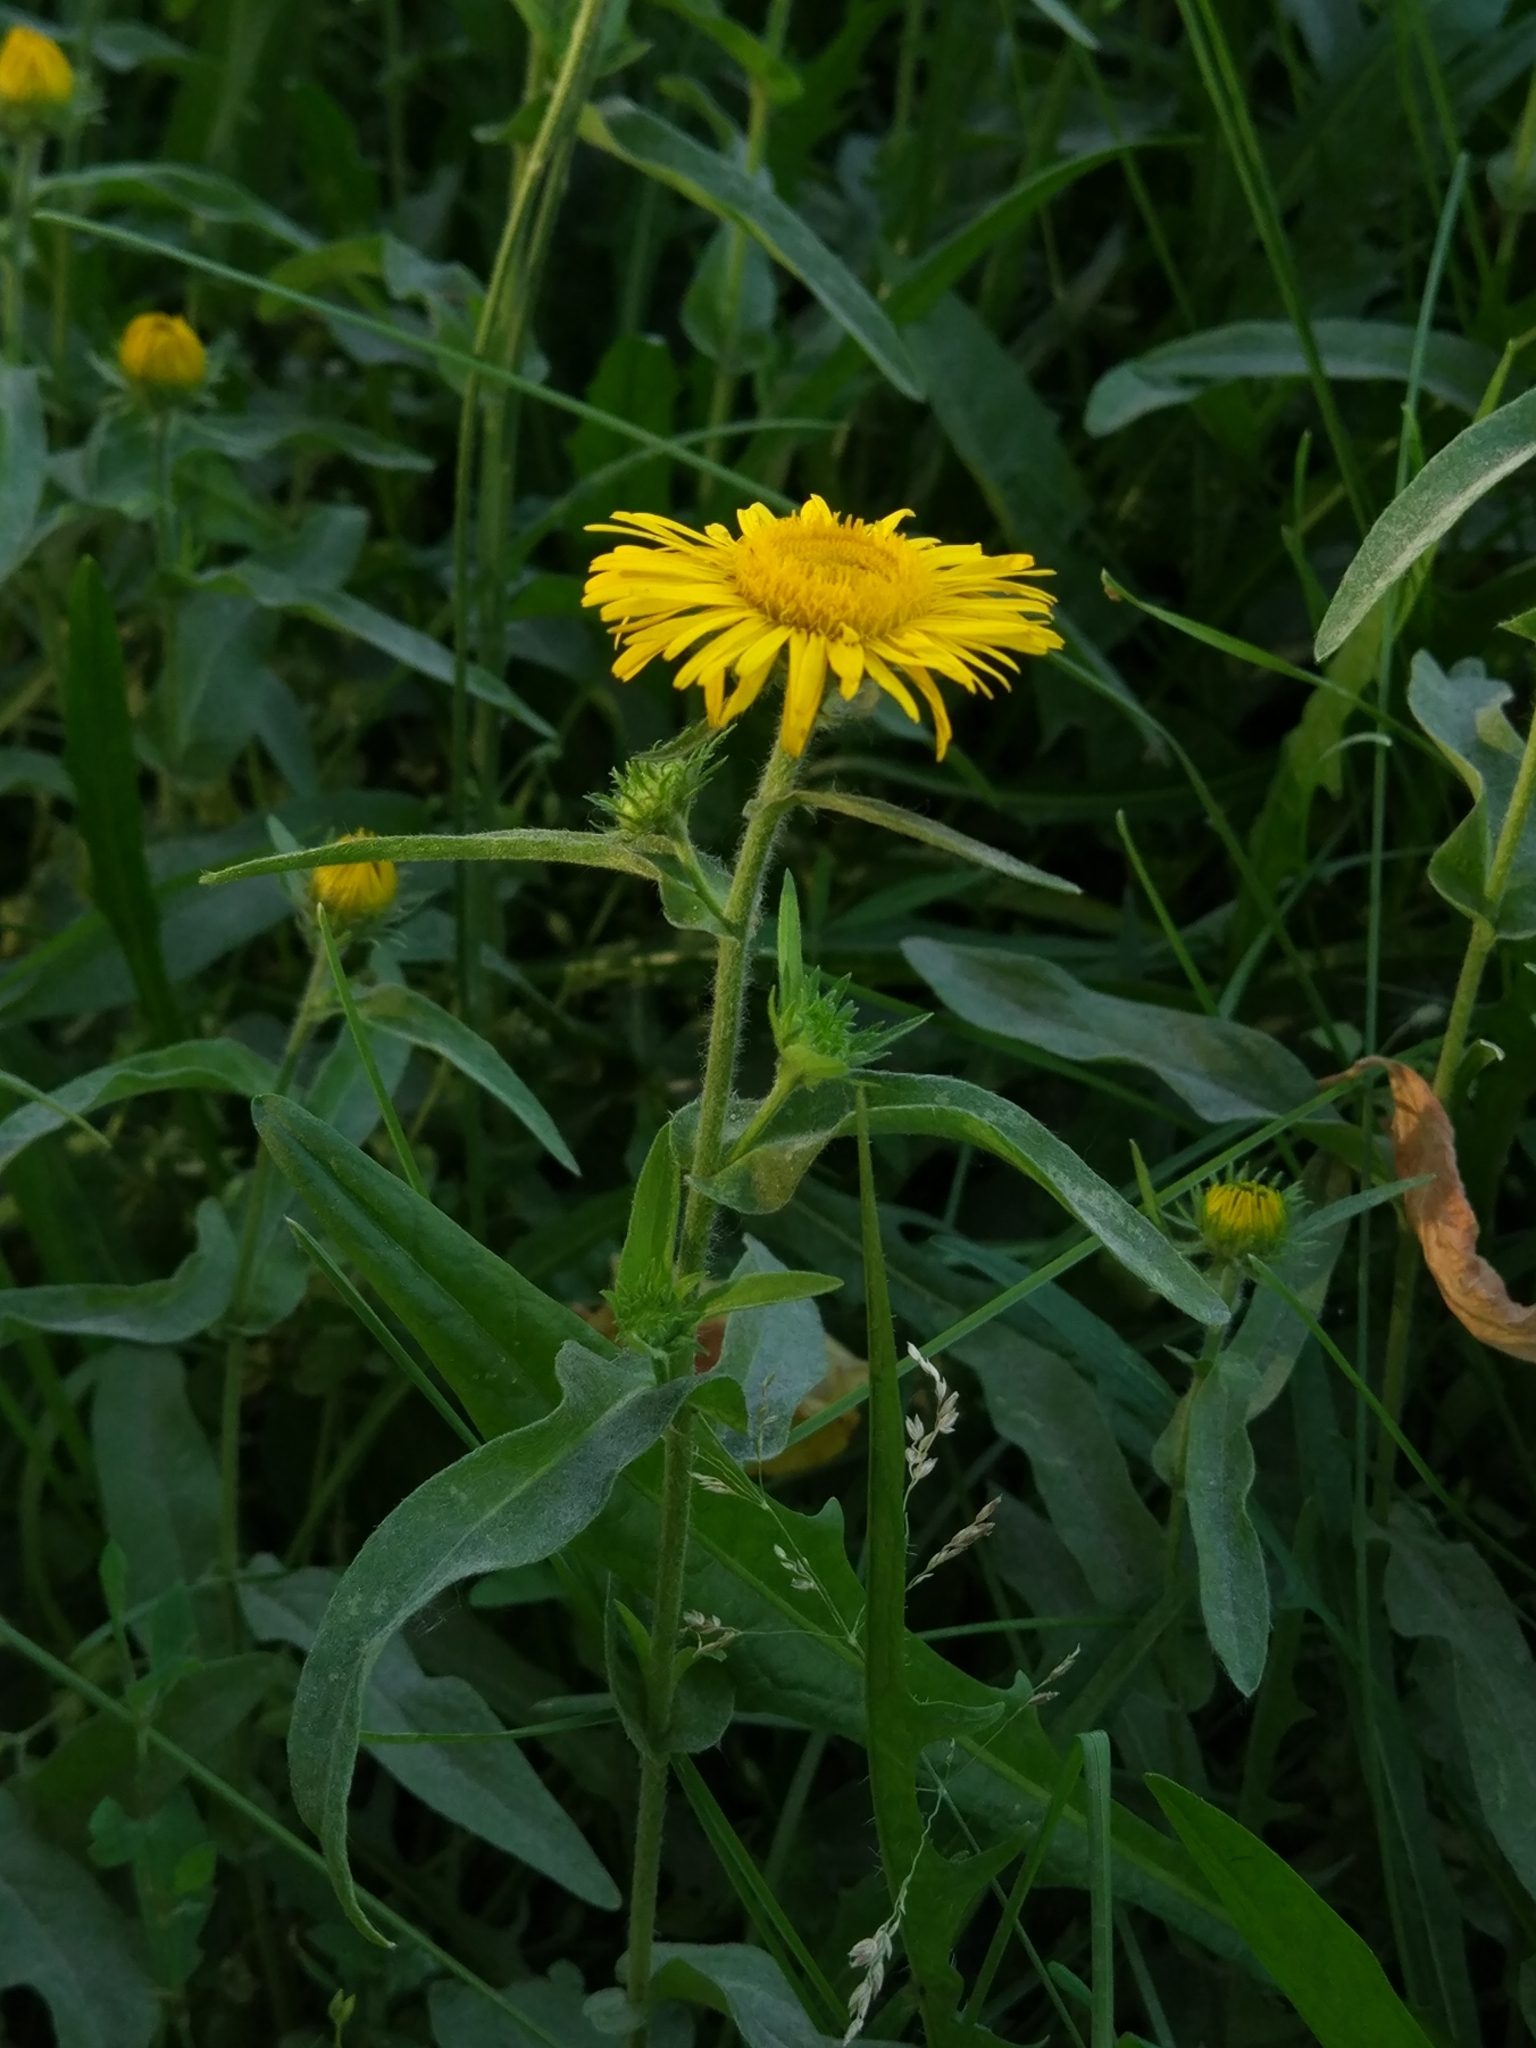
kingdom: Plantae
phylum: Tracheophyta
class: Magnoliopsida
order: Asterales
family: Asteraceae
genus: Pentanema
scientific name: Pentanema britannicum
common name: British elecampane
